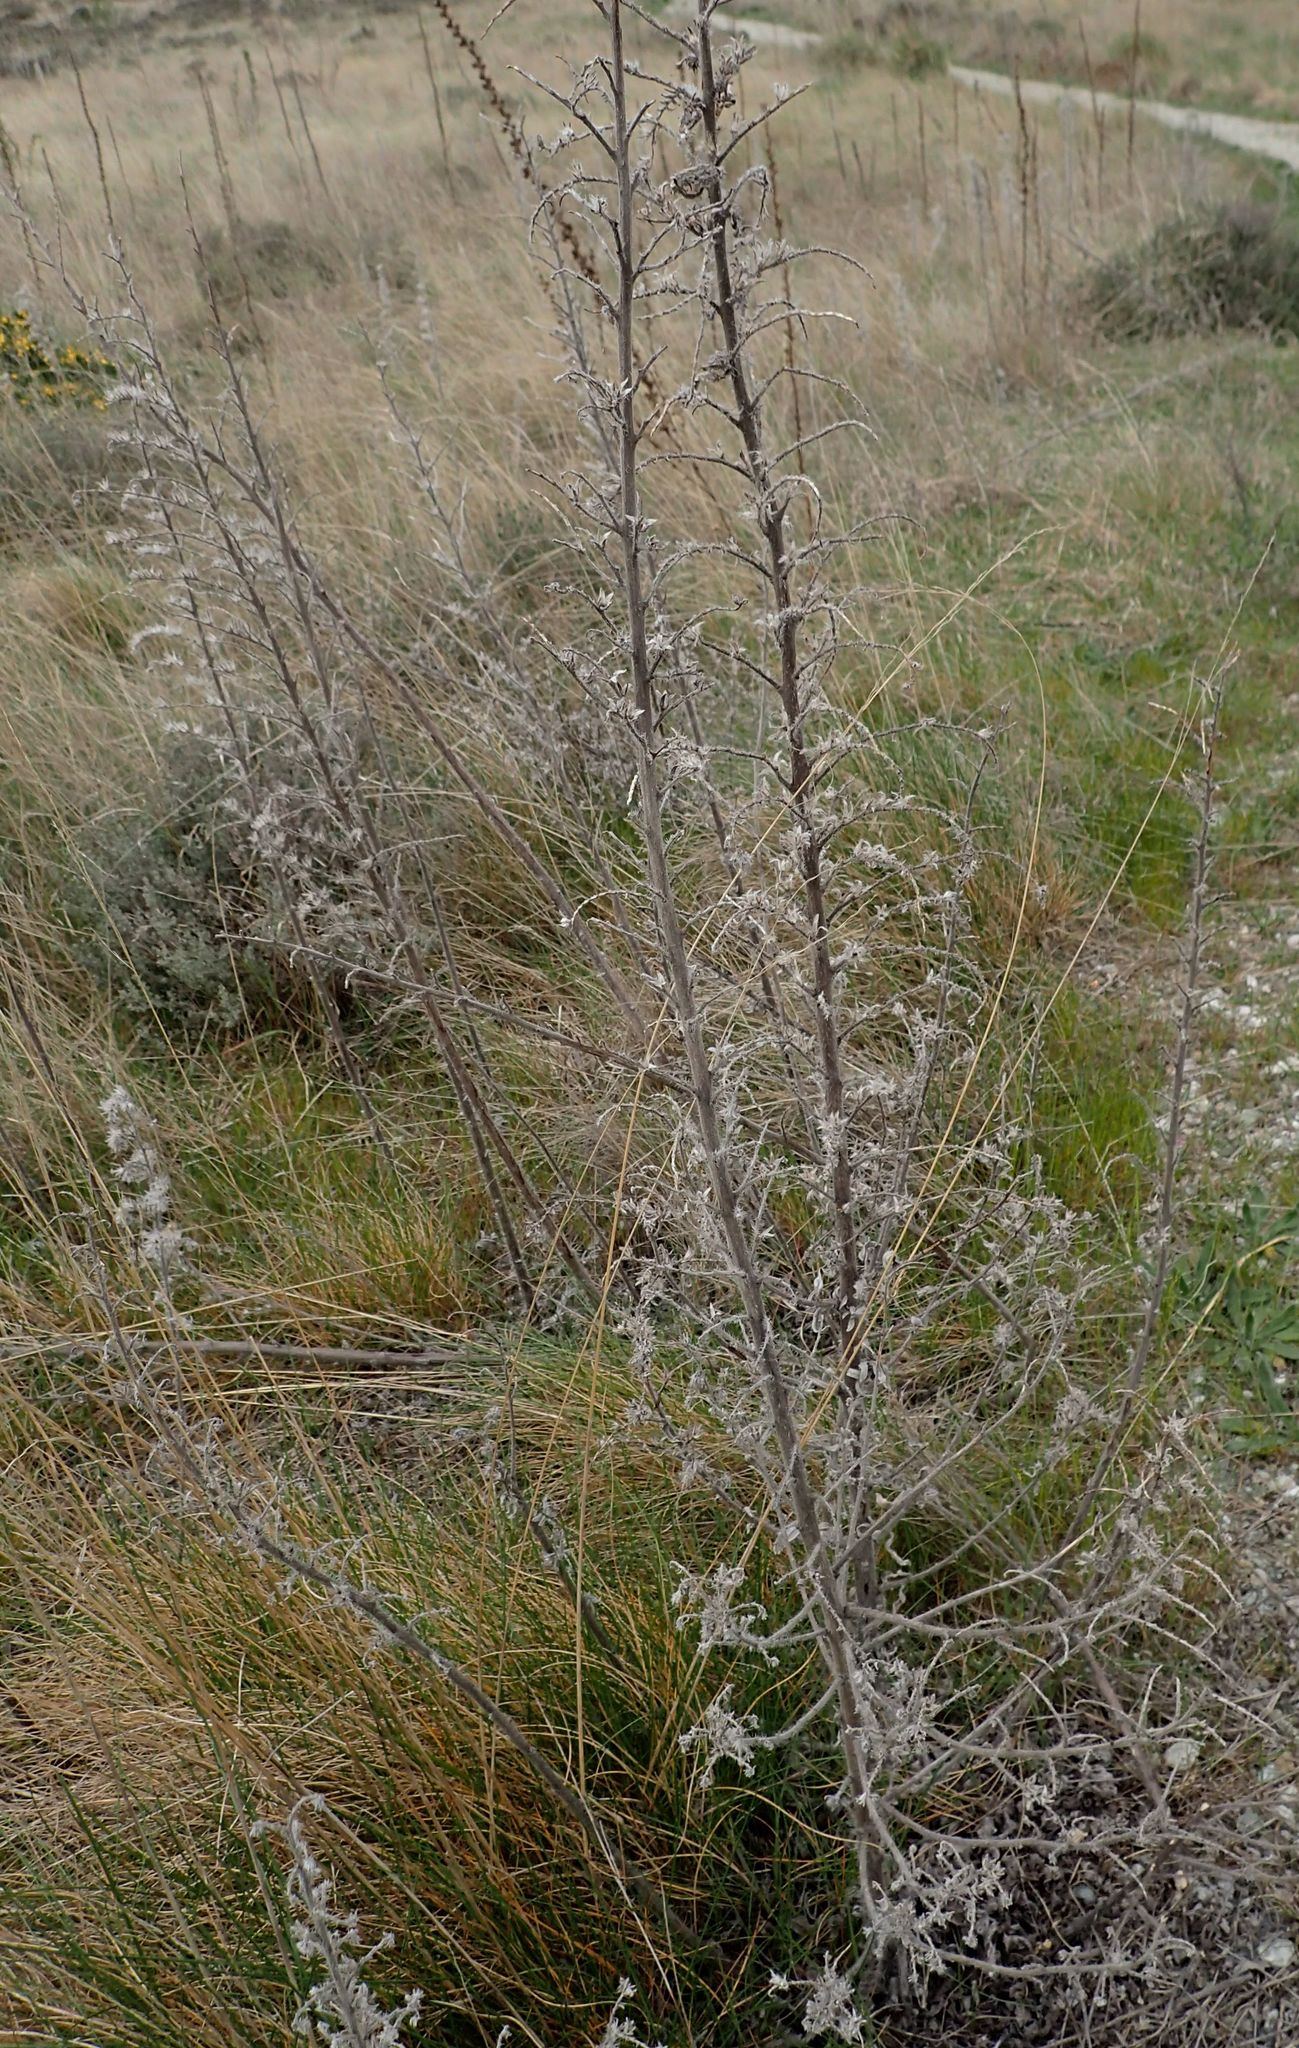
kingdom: Plantae
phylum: Tracheophyta
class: Magnoliopsida
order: Boraginales
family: Boraginaceae
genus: Echium
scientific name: Echium vulgare
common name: Common viper's bugloss
